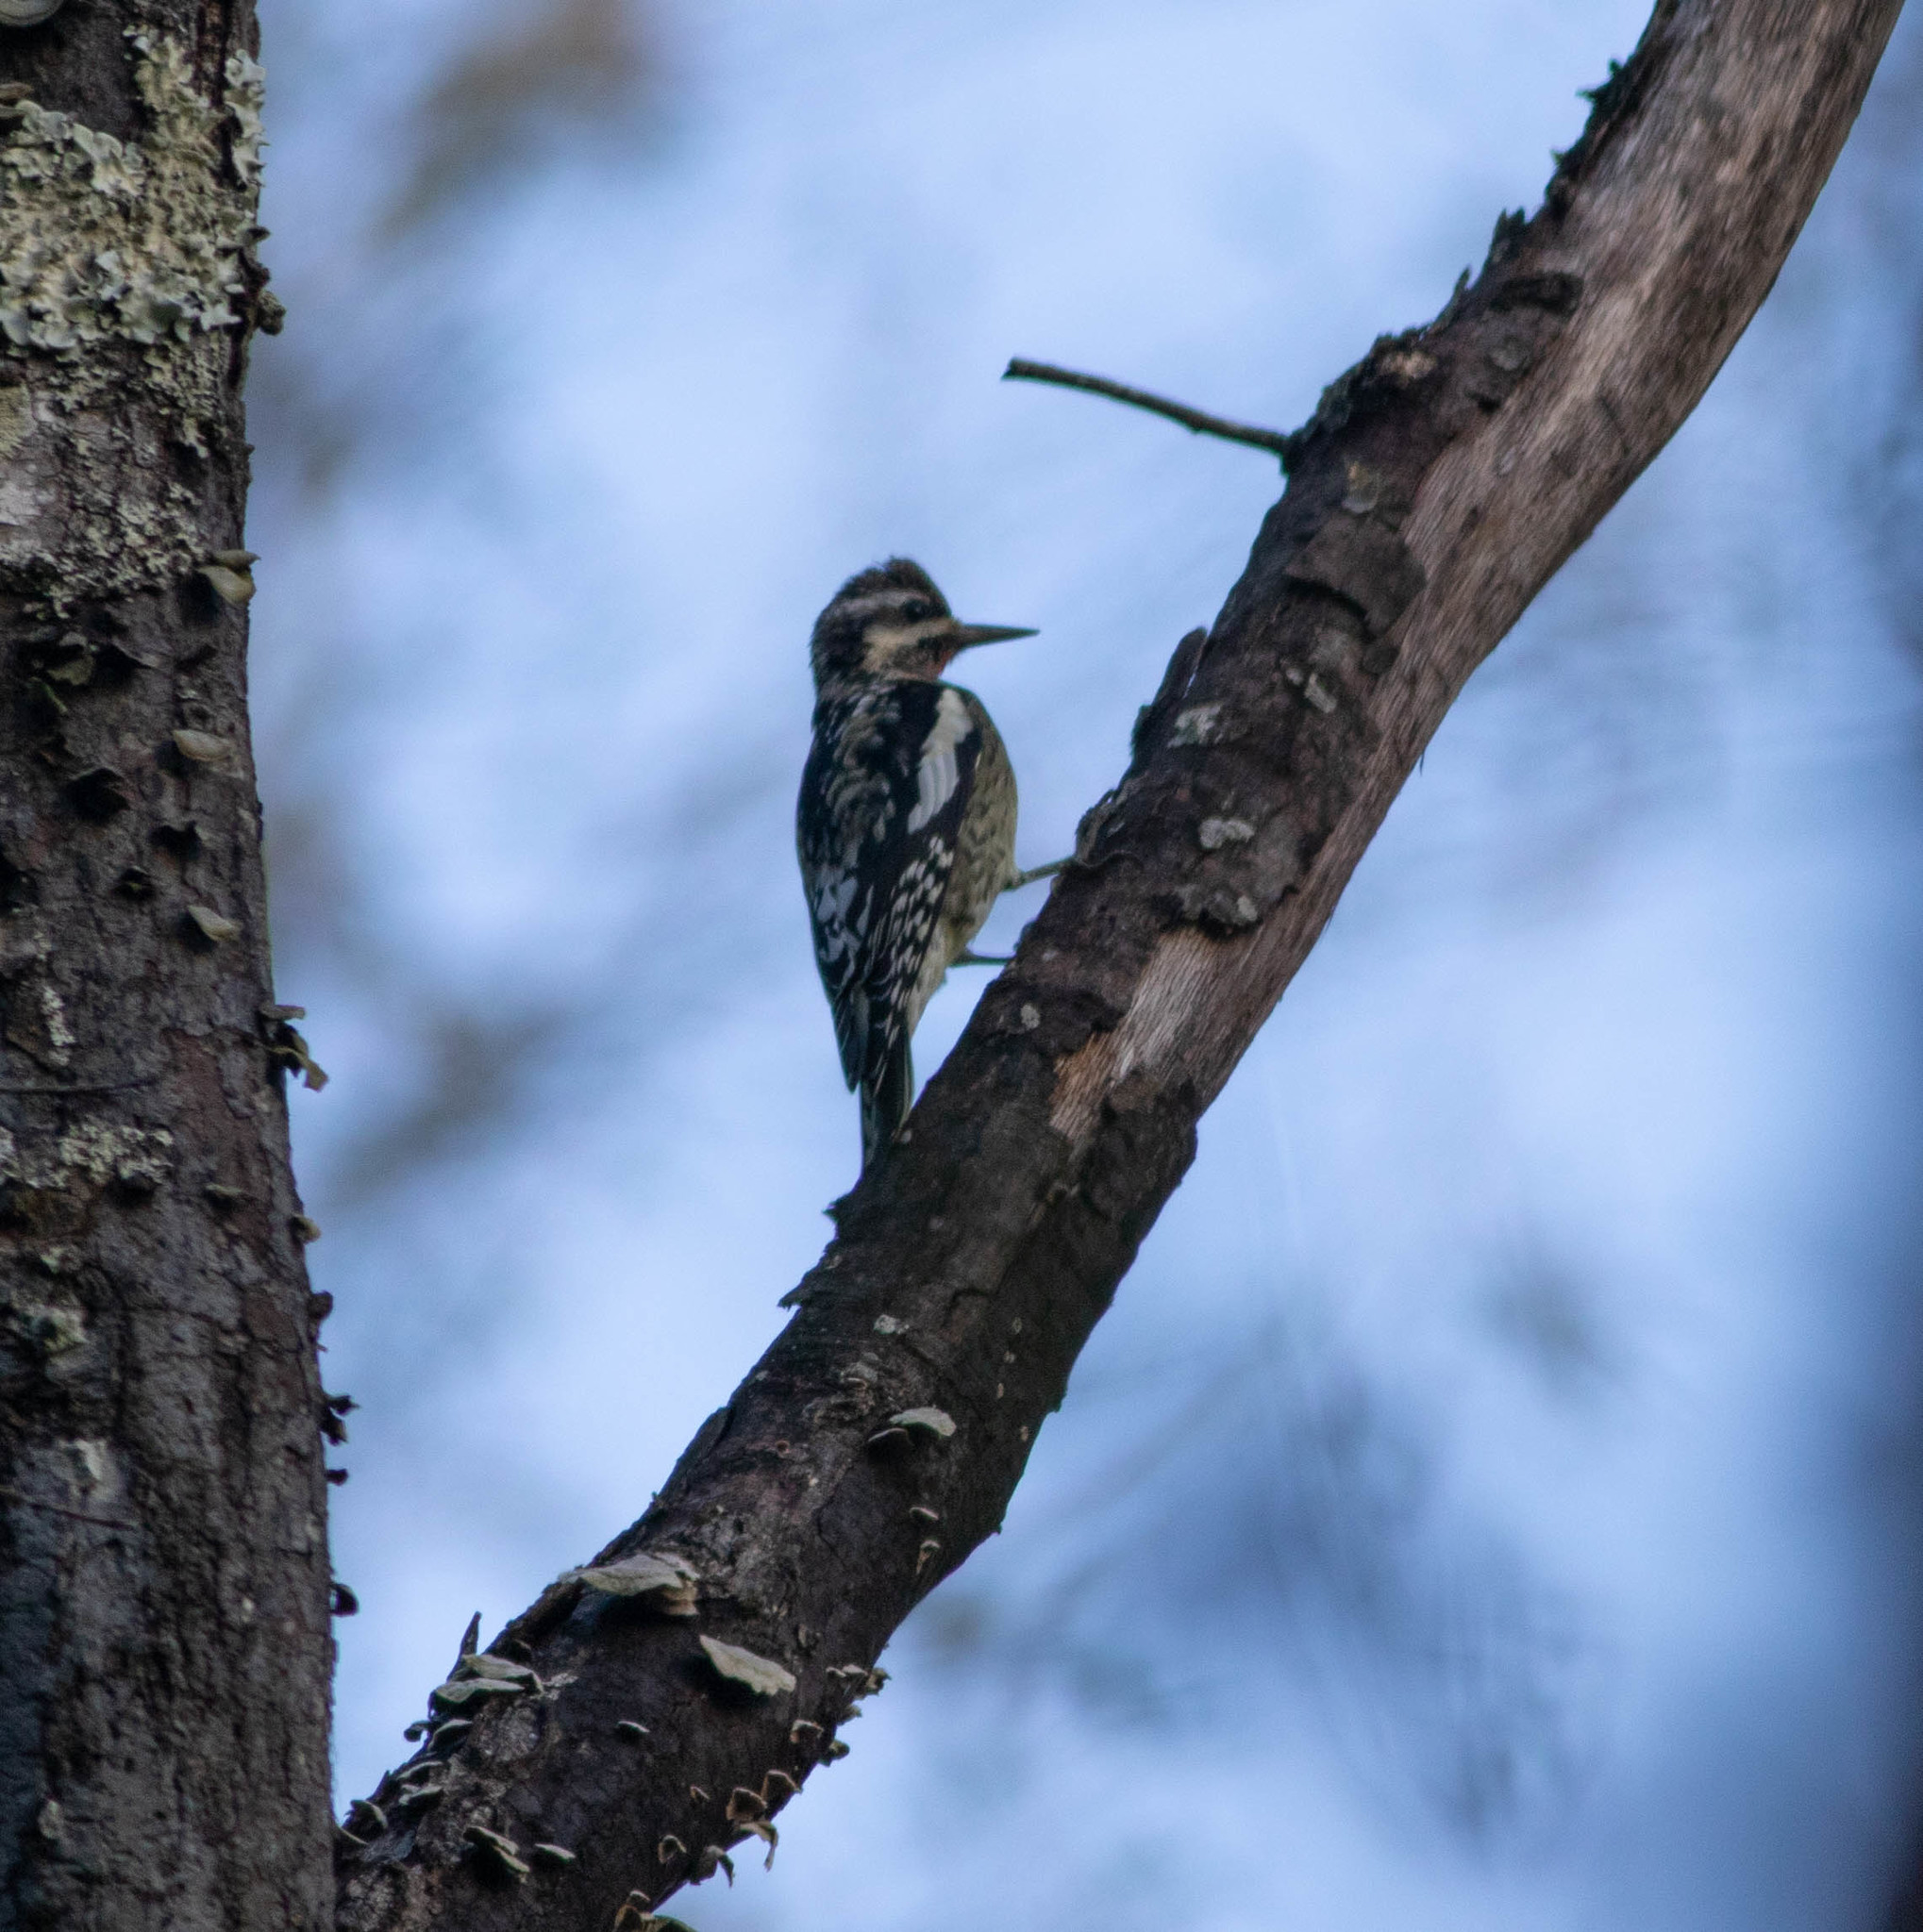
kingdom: Animalia
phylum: Chordata
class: Aves
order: Piciformes
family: Picidae
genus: Sphyrapicus
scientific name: Sphyrapicus varius
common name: Yellow-bellied sapsucker
